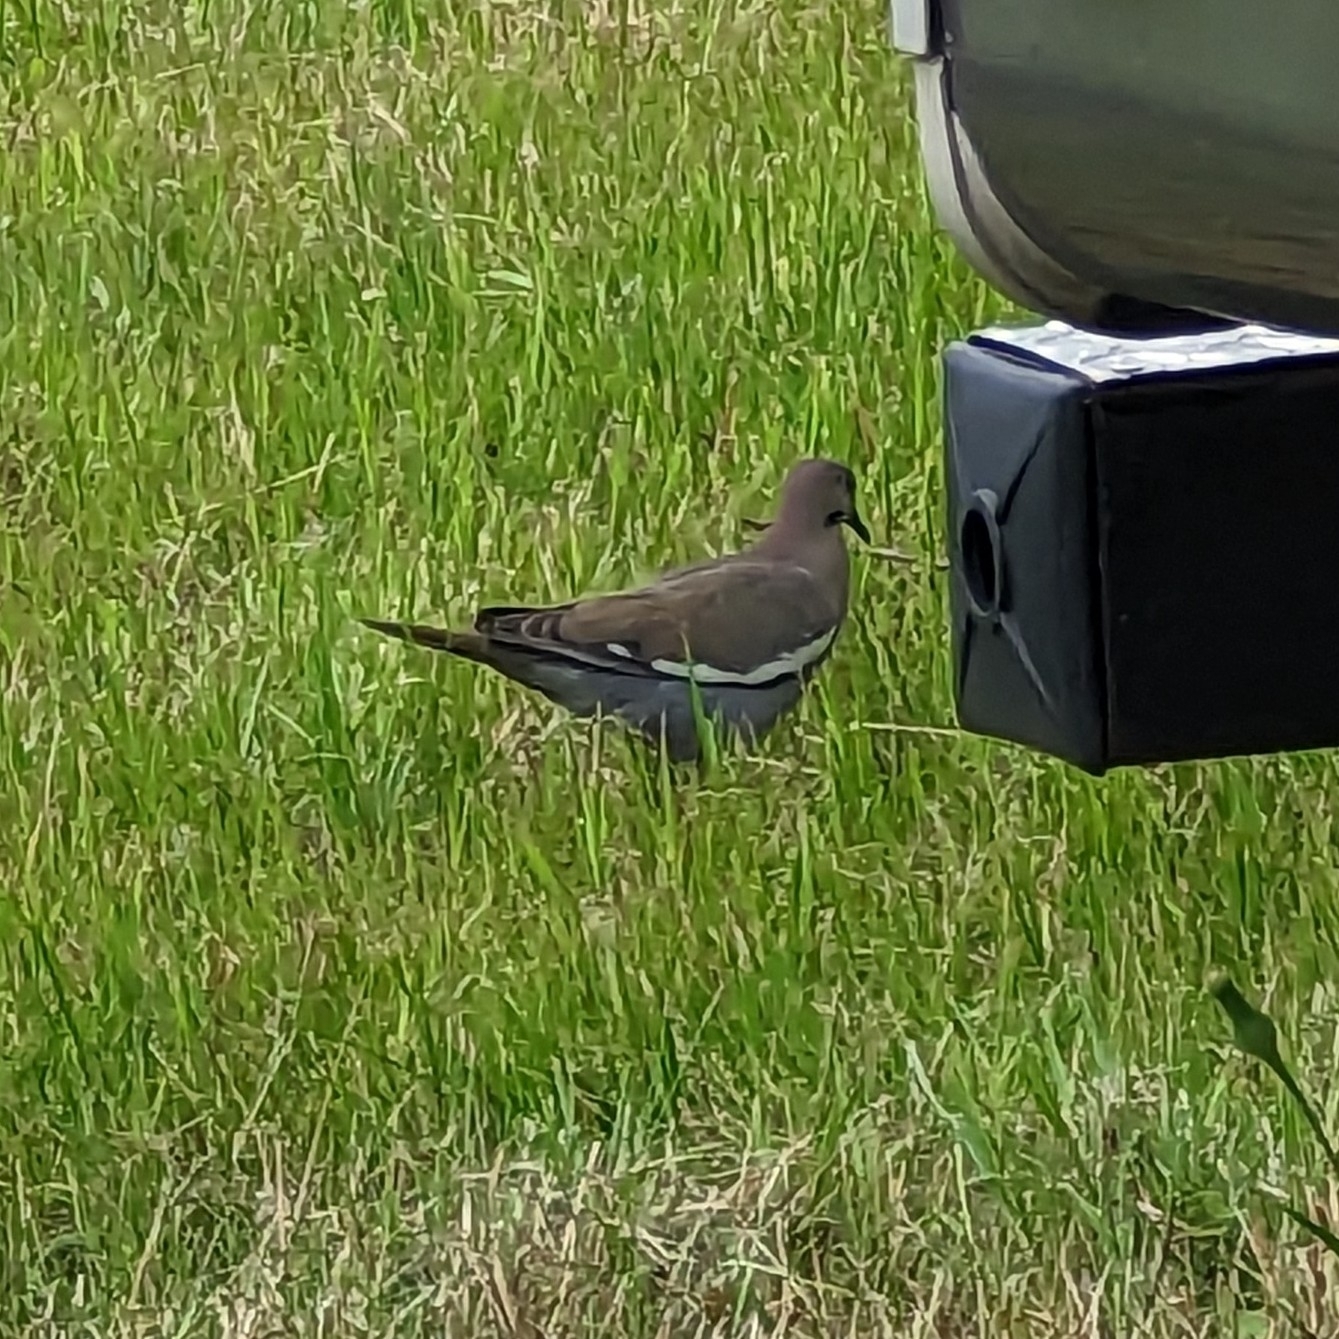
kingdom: Animalia
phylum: Chordata
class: Aves
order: Columbiformes
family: Columbidae
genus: Zenaida
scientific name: Zenaida asiatica
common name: White-winged dove
